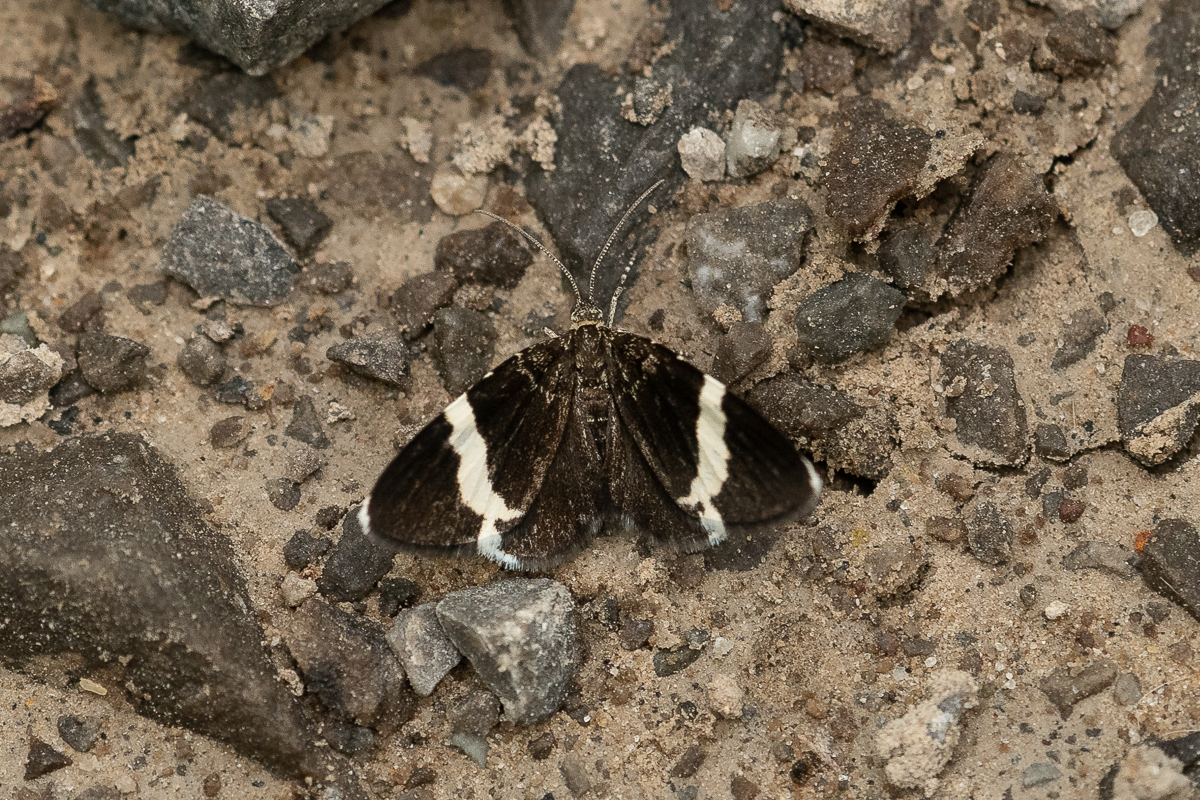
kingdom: Animalia
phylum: Arthropoda
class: Insecta
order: Lepidoptera
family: Geometridae
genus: Trichodezia
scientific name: Trichodezia albovittata
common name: White striped black
